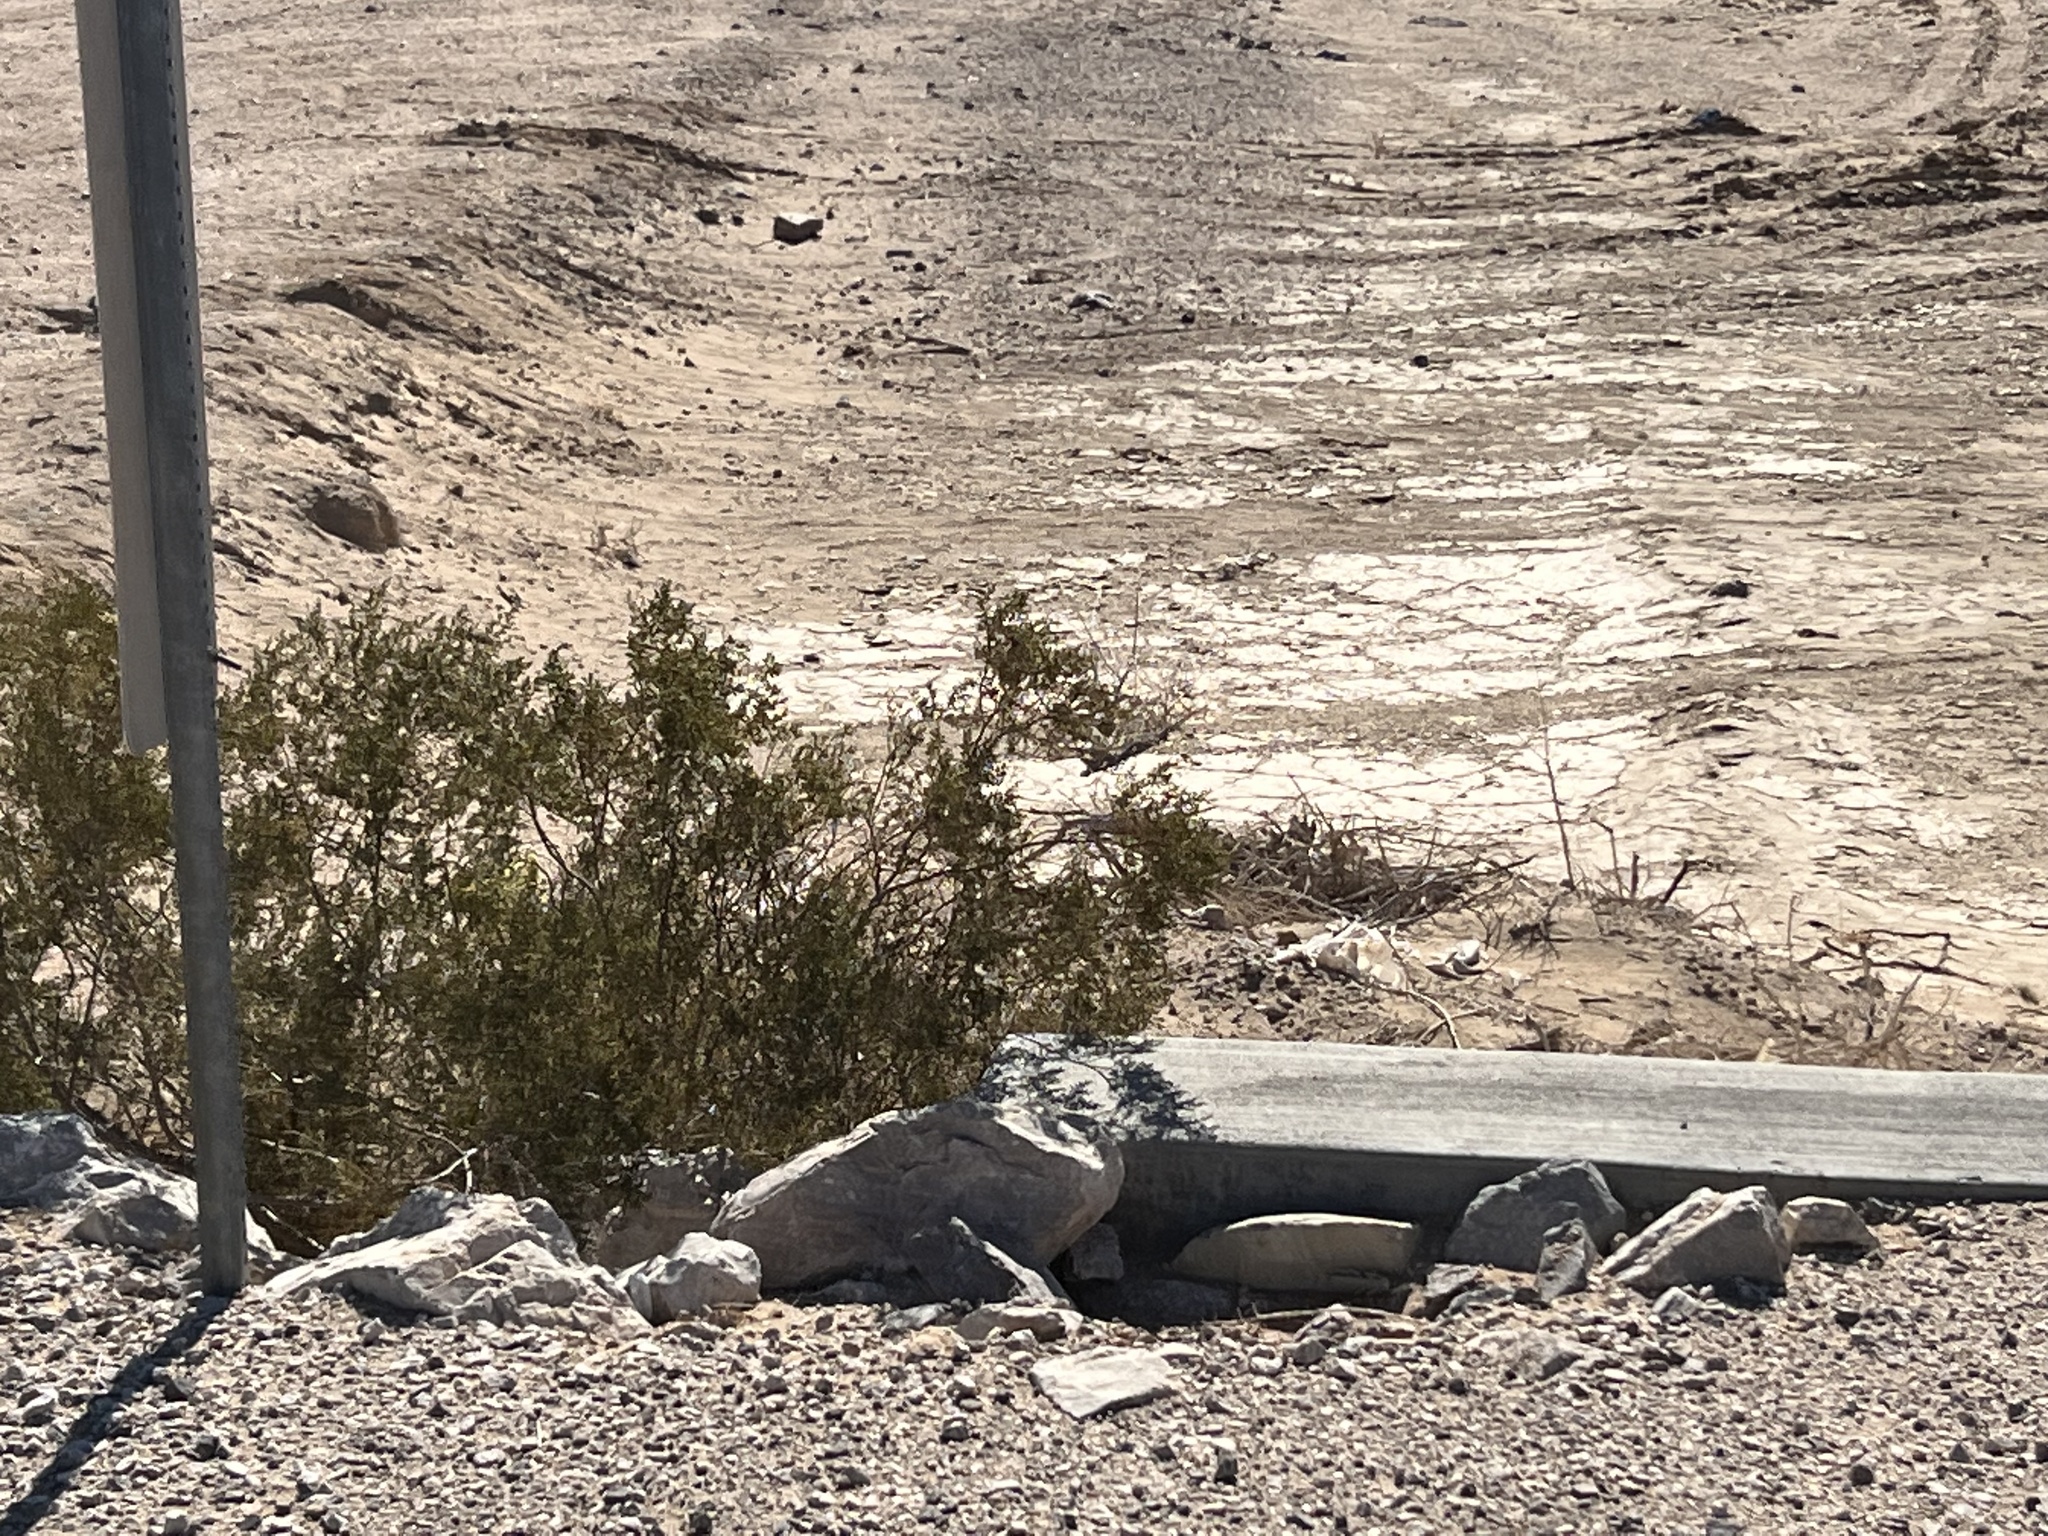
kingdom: Plantae
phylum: Tracheophyta
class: Magnoliopsida
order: Zygophyllales
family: Zygophyllaceae
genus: Larrea
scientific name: Larrea tridentata
